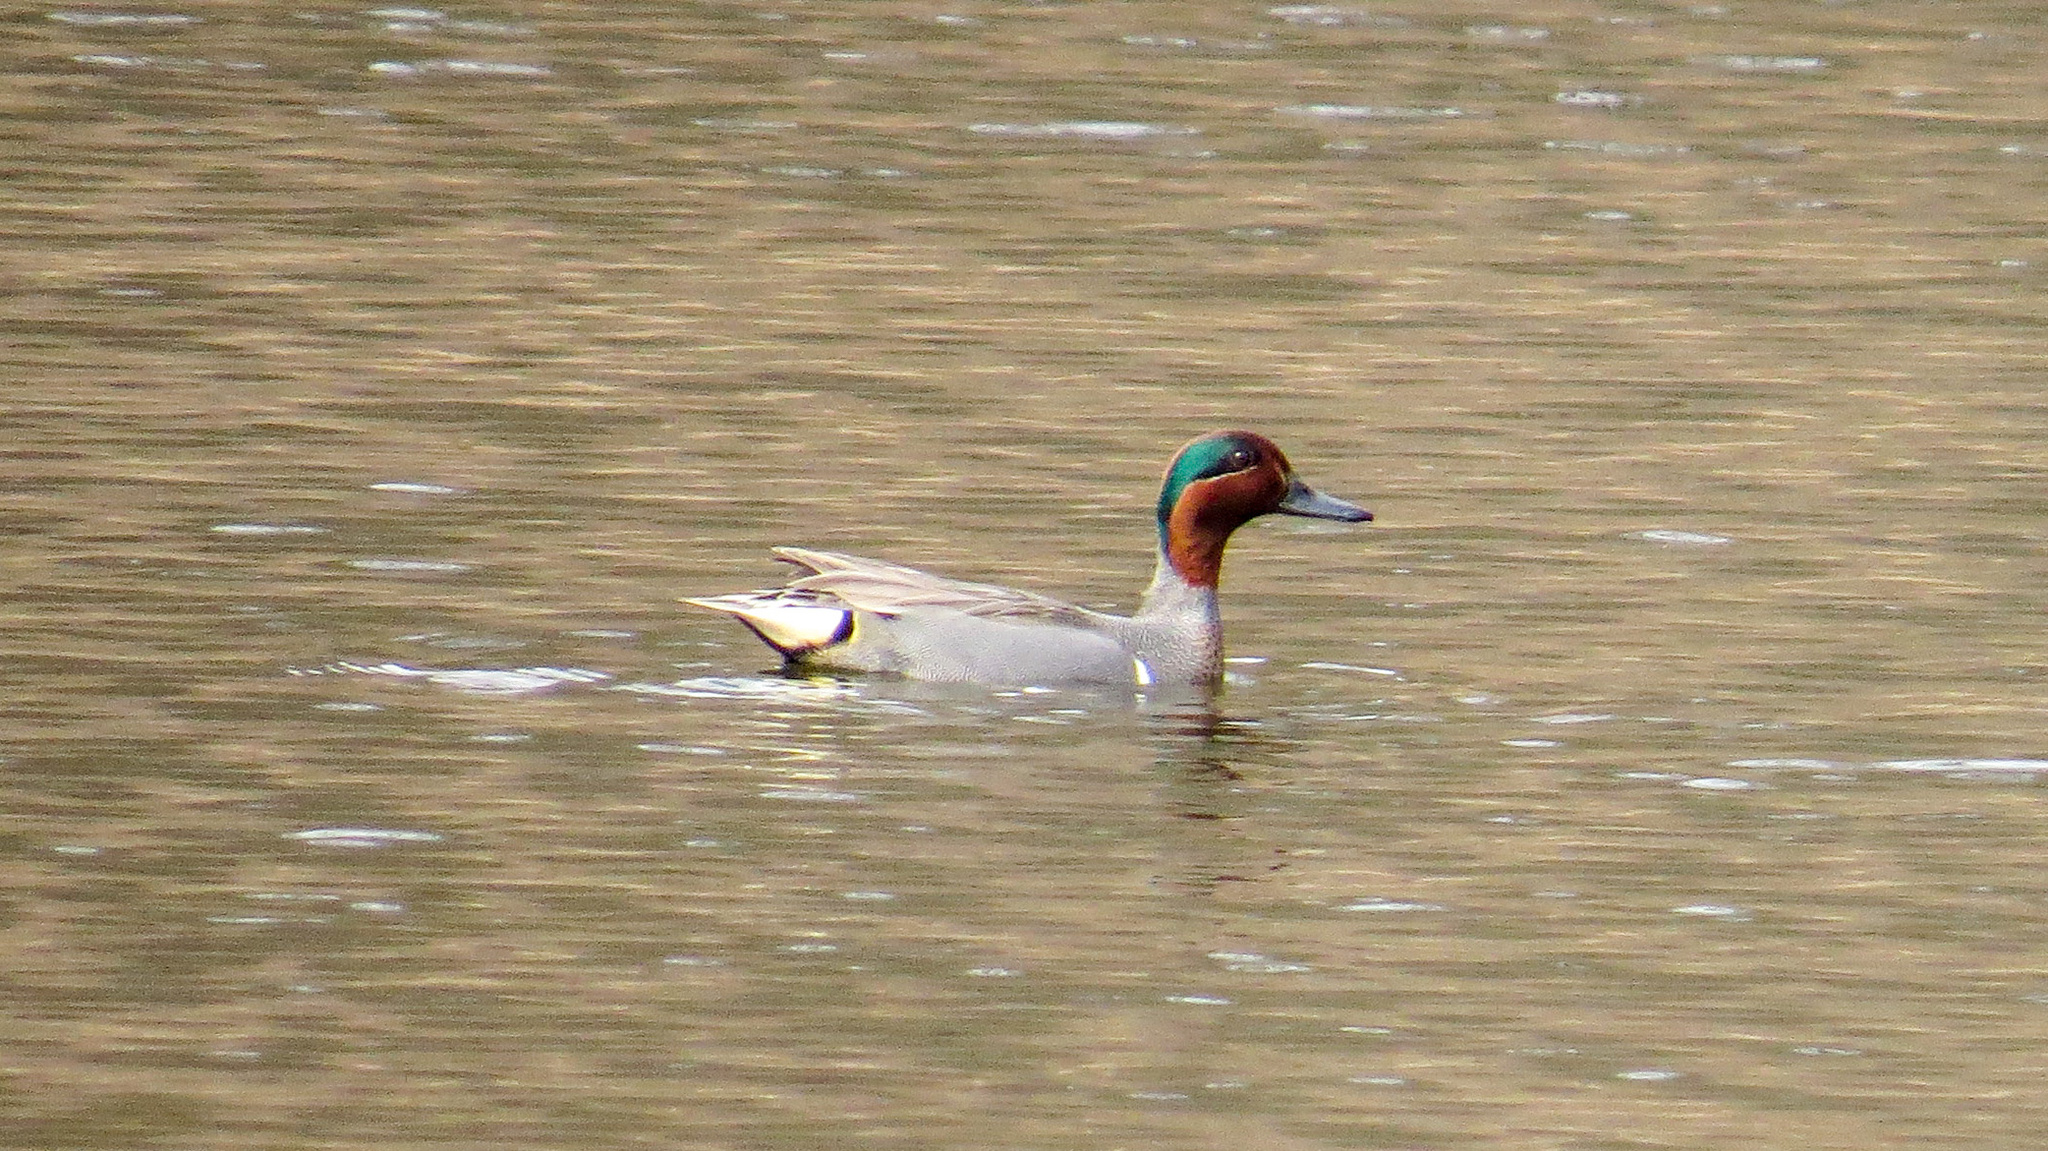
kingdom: Animalia
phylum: Chordata
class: Aves
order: Anseriformes
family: Anatidae
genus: Anas
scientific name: Anas crecca
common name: Eurasian teal
